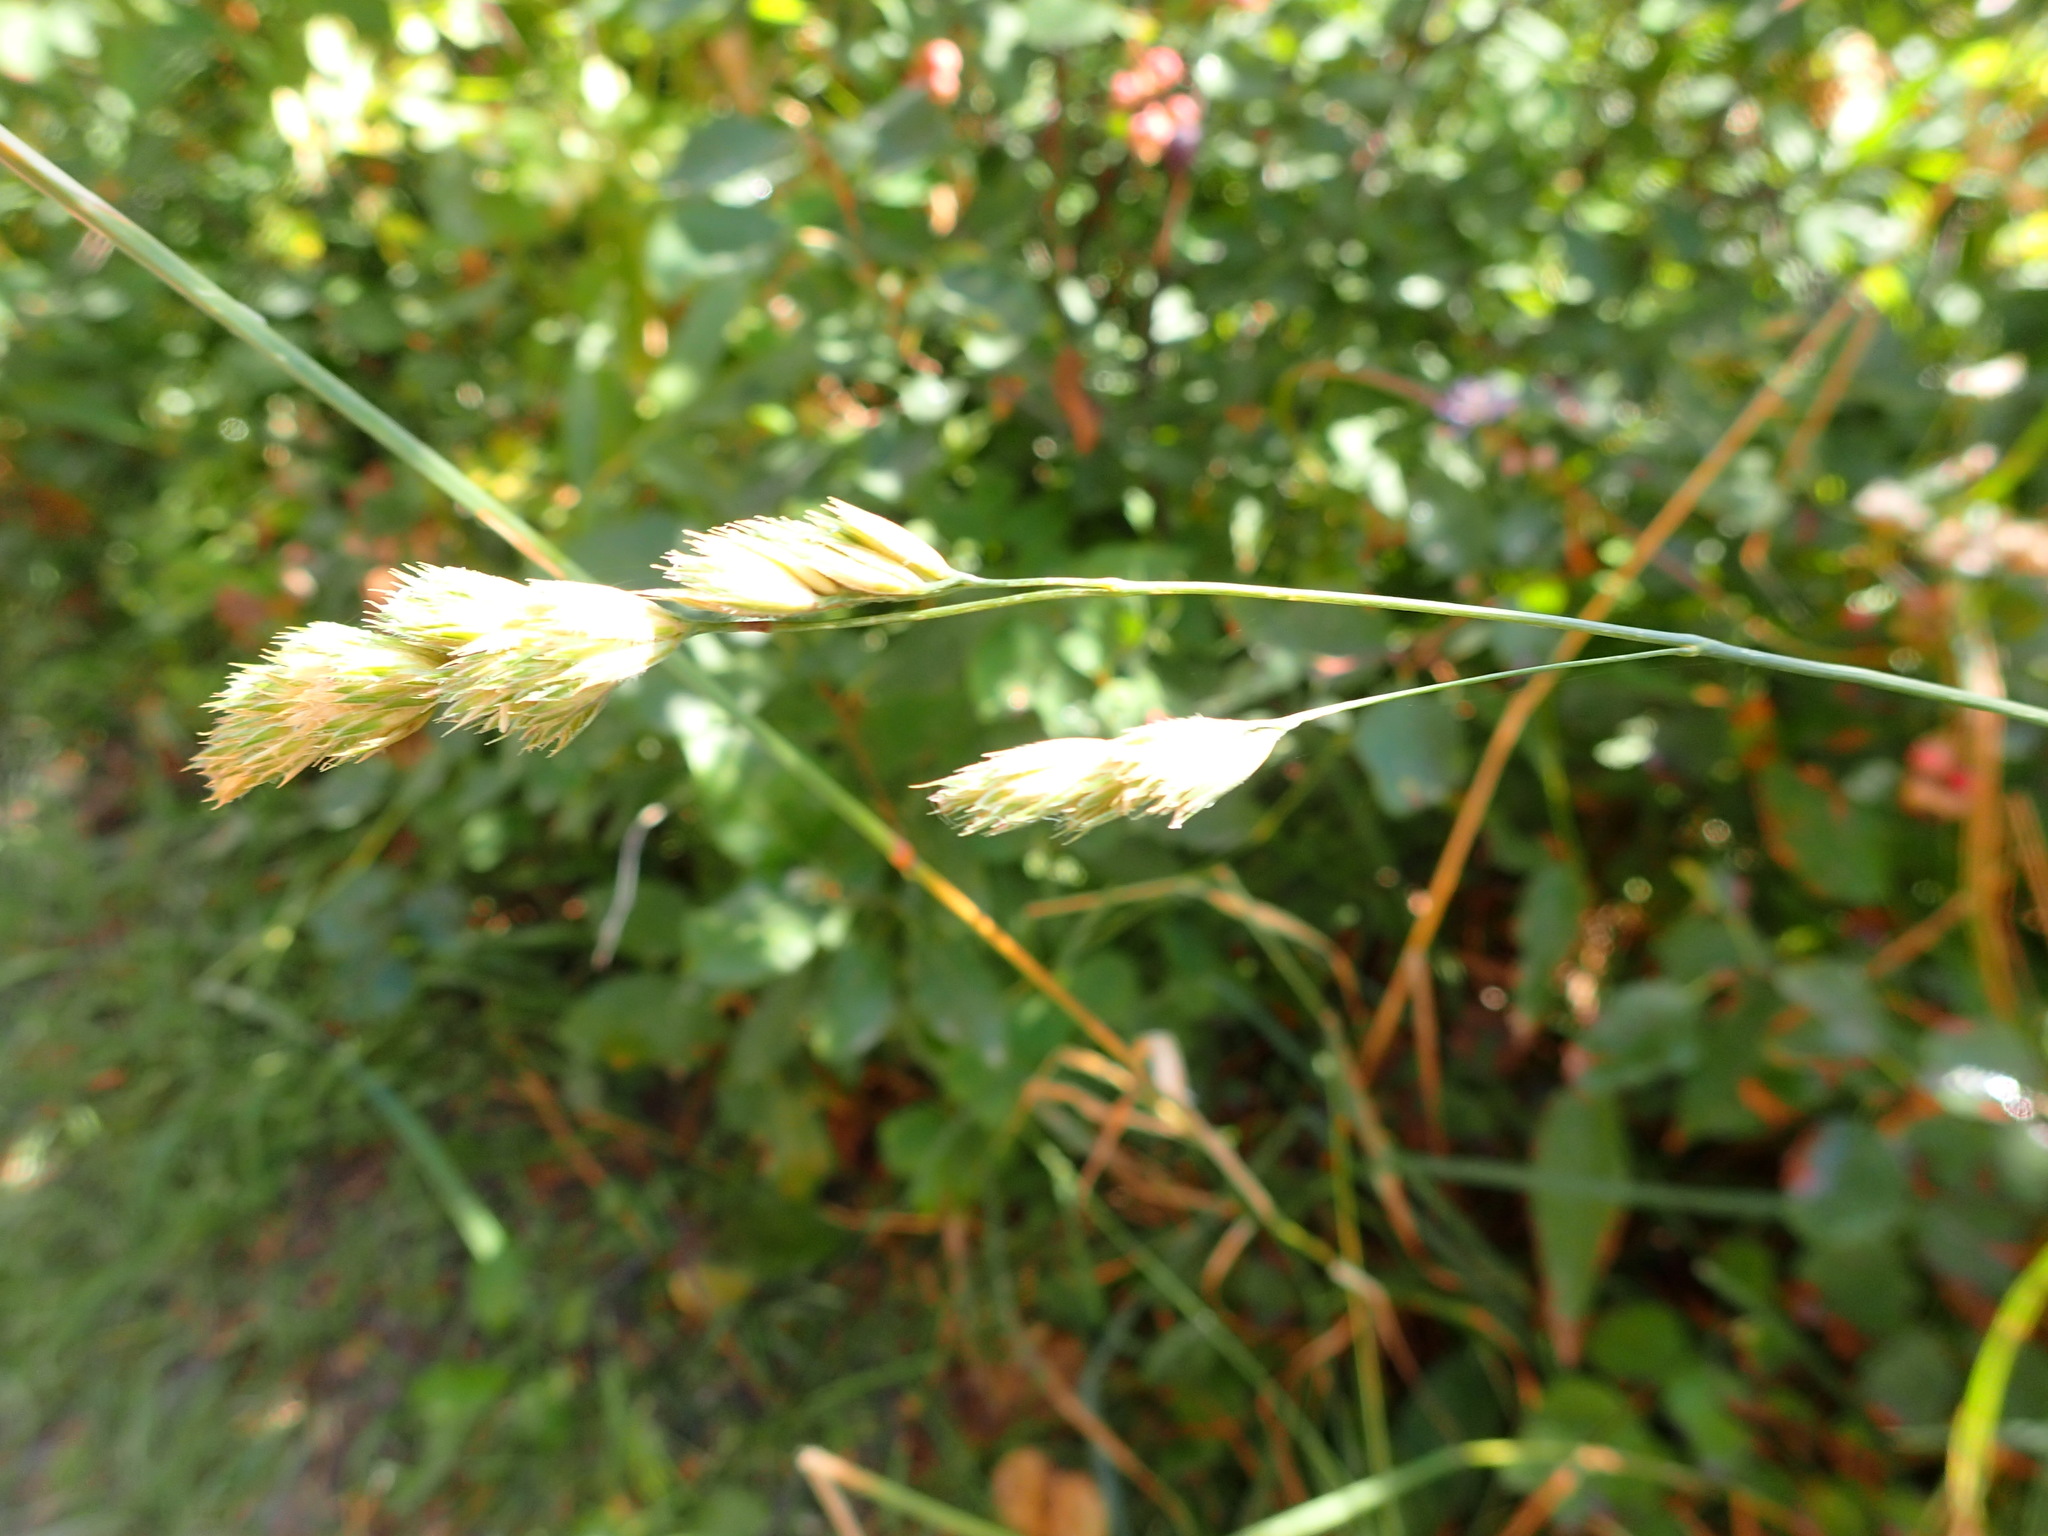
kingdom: Plantae
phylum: Tracheophyta
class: Liliopsida
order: Poales
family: Poaceae
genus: Dactylis
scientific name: Dactylis glomerata
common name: Orchardgrass
